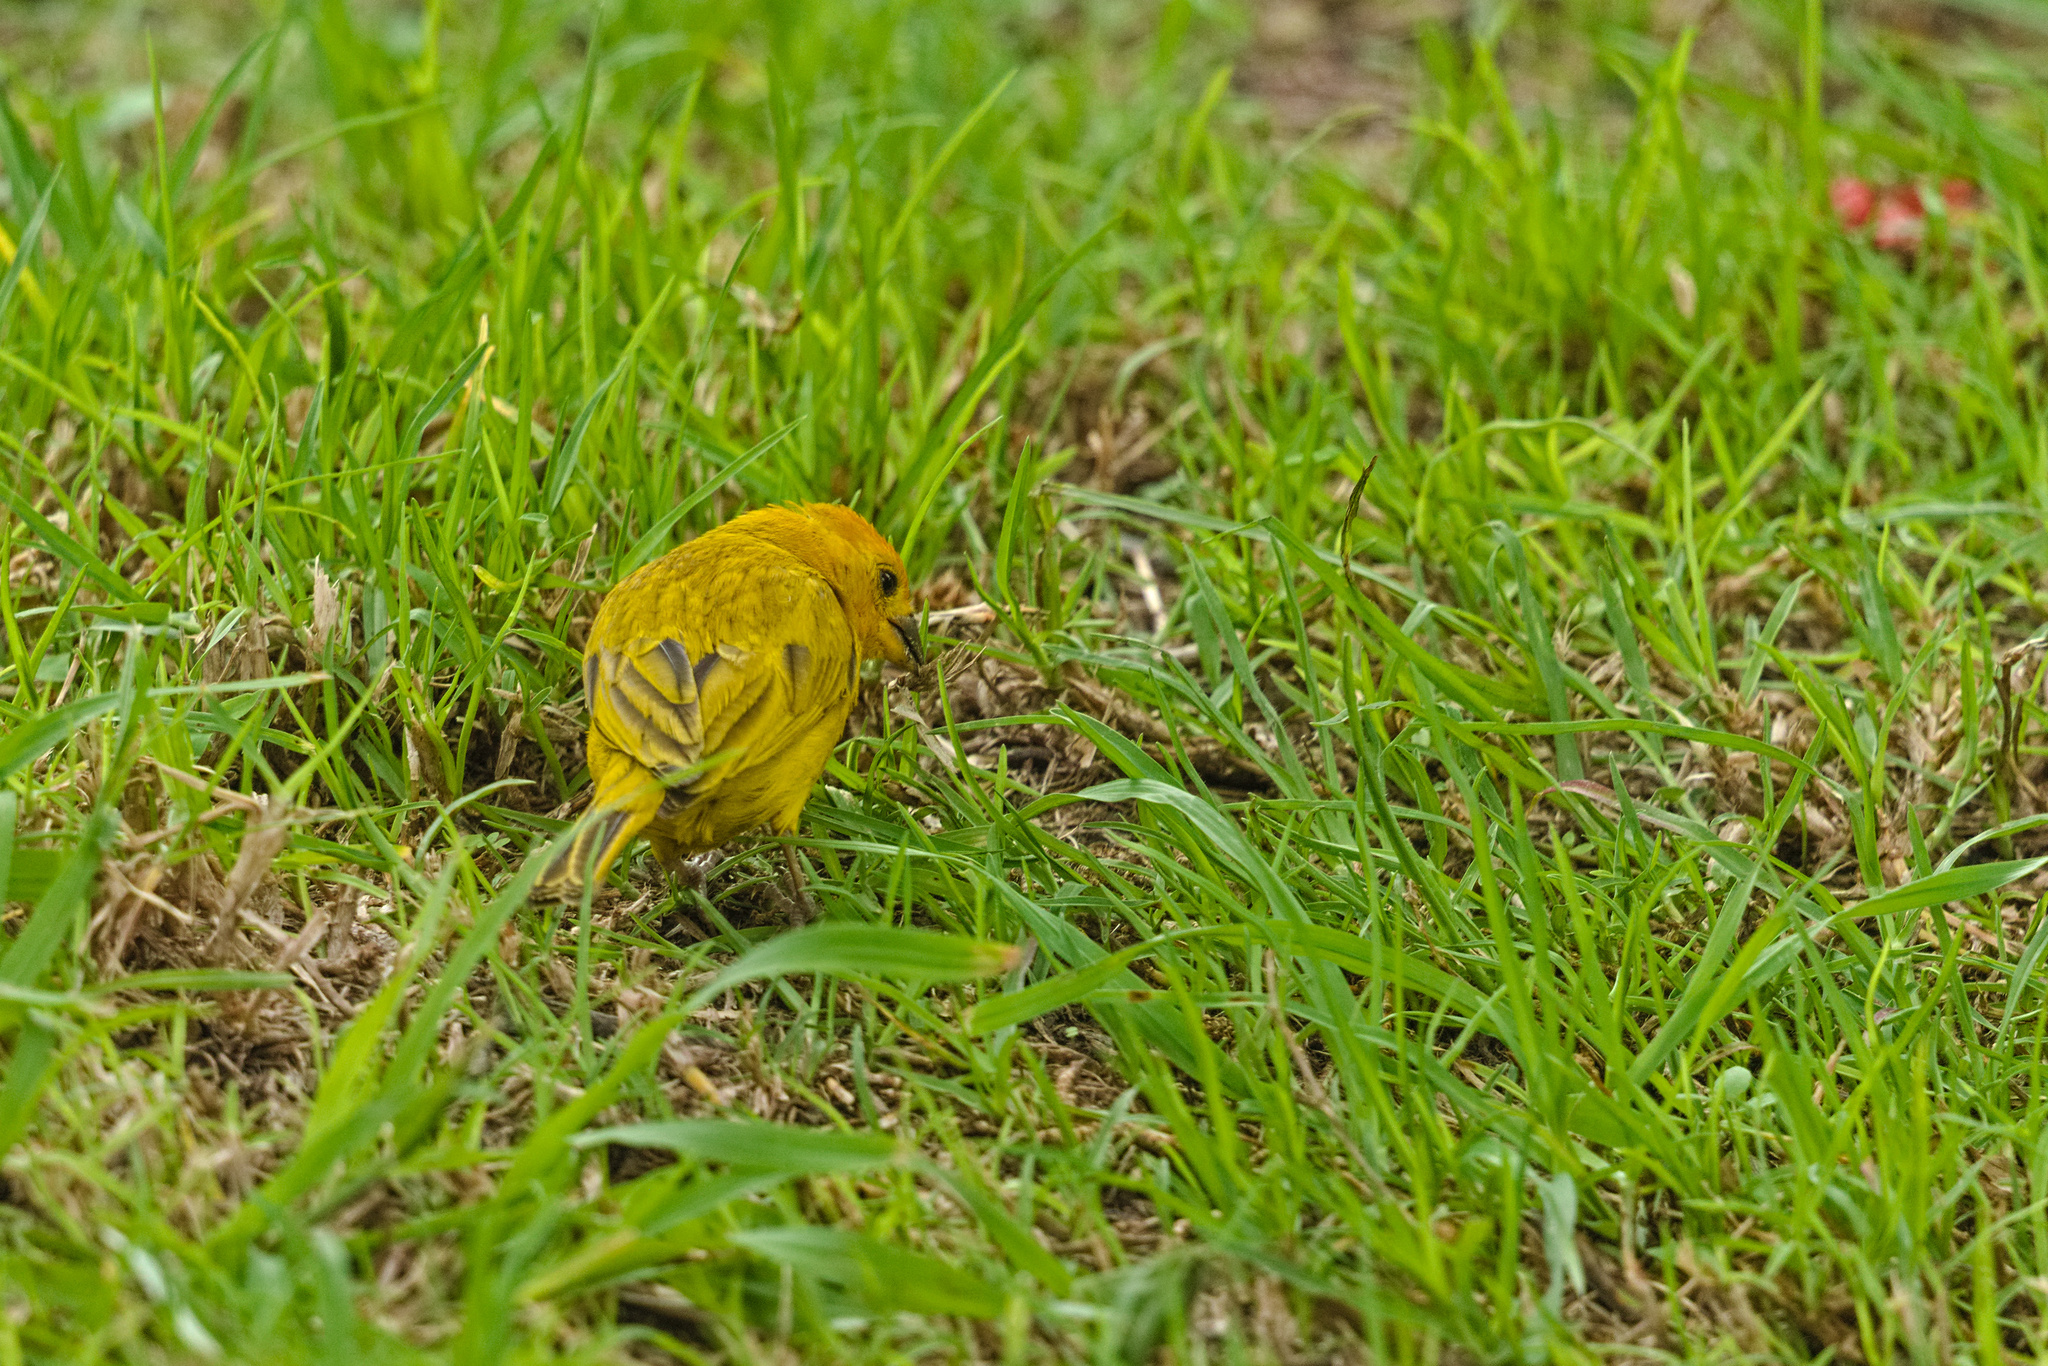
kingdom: Animalia
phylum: Chordata
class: Aves
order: Passeriformes
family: Thraupidae
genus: Sicalis
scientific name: Sicalis flaveola
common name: Saffron finch
